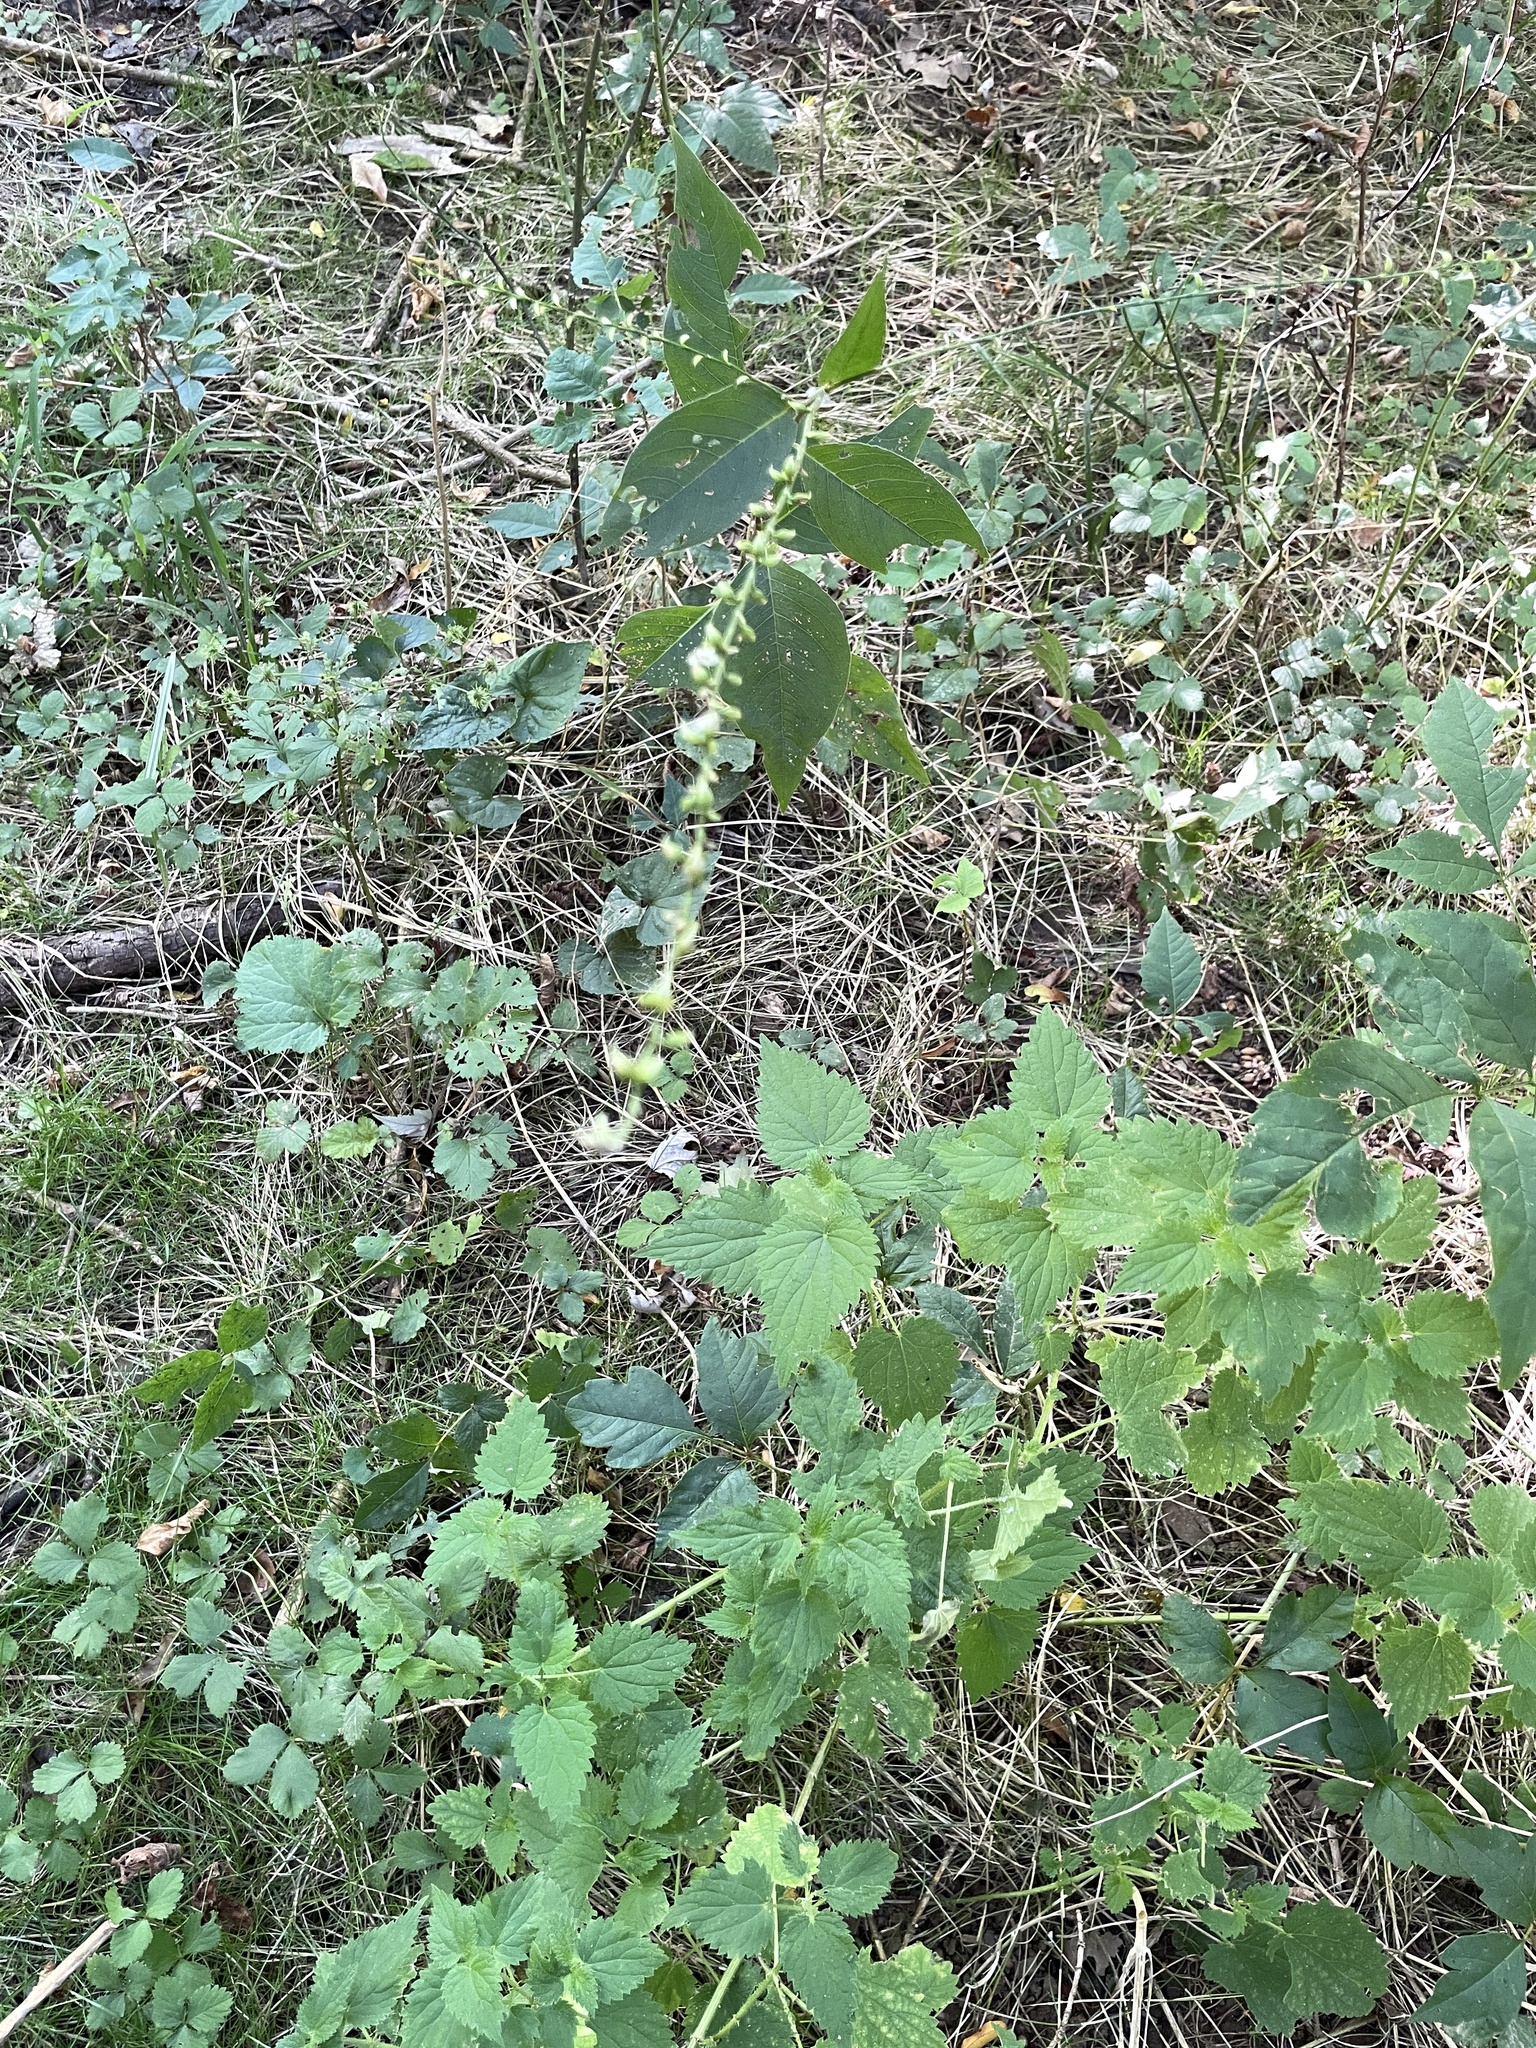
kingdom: Plantae
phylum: Tracheophyta
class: Magnoliopsida
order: Caryophyllales
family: Polygonaceae
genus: Persicaria
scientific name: Persicaria virginiana
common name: Jumpseed
